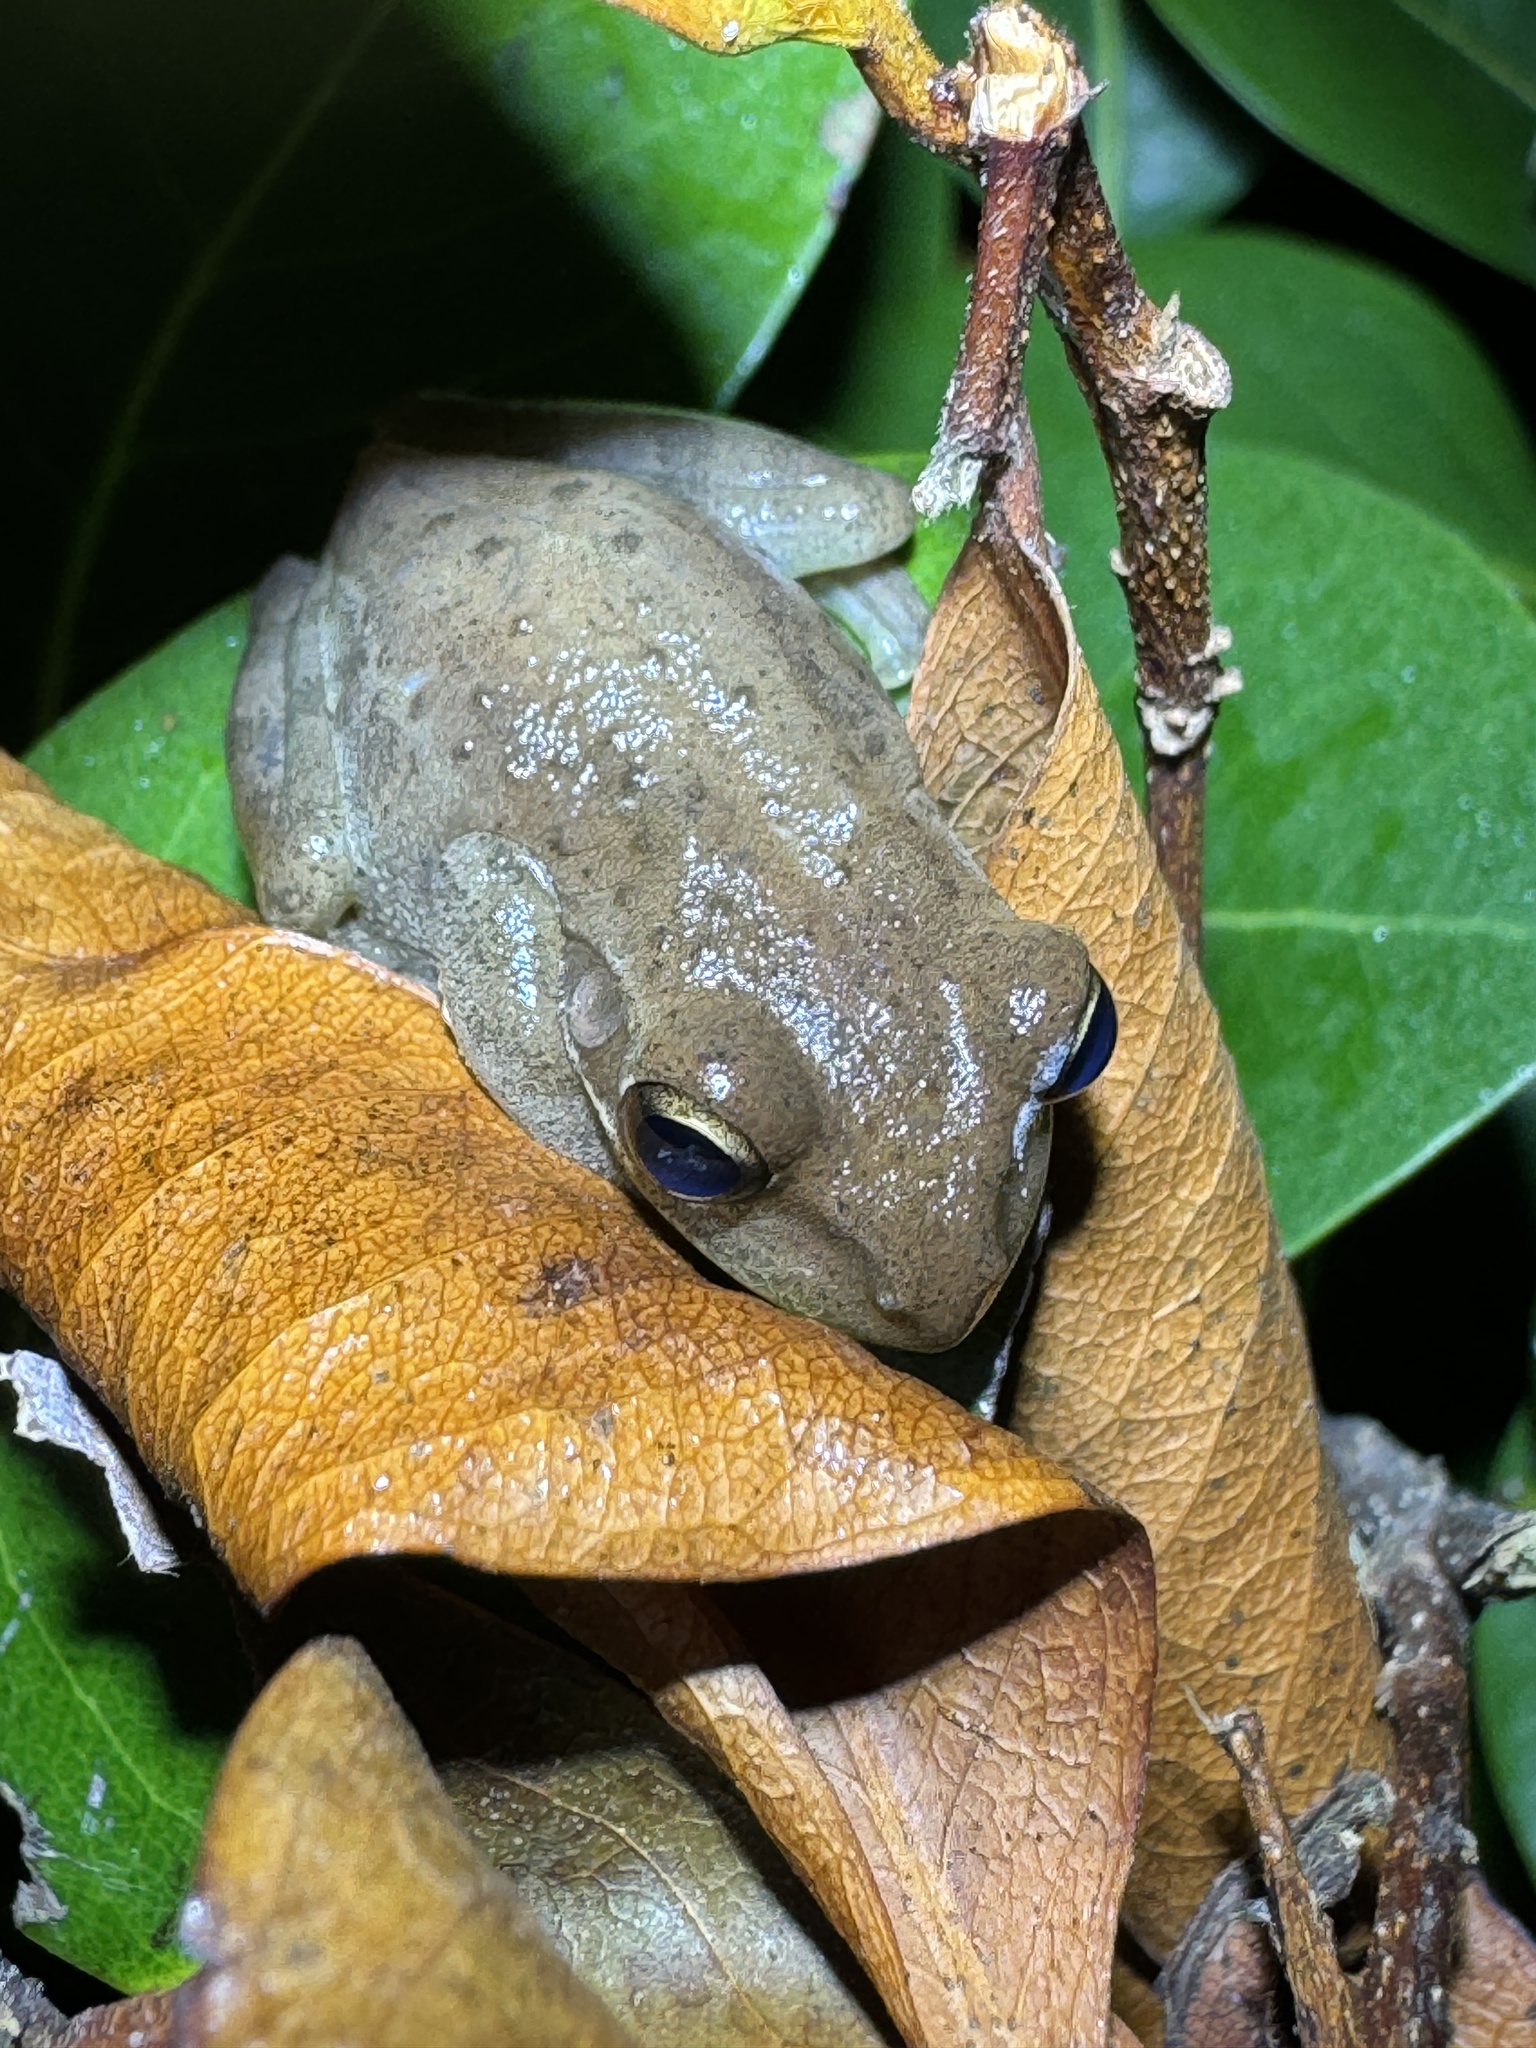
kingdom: Animalia
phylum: Chordata
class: Amphibia
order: Anura
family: Hylidae
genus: Osteopilus
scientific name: Osteopilus septentrionalis
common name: Cuban treefrog
